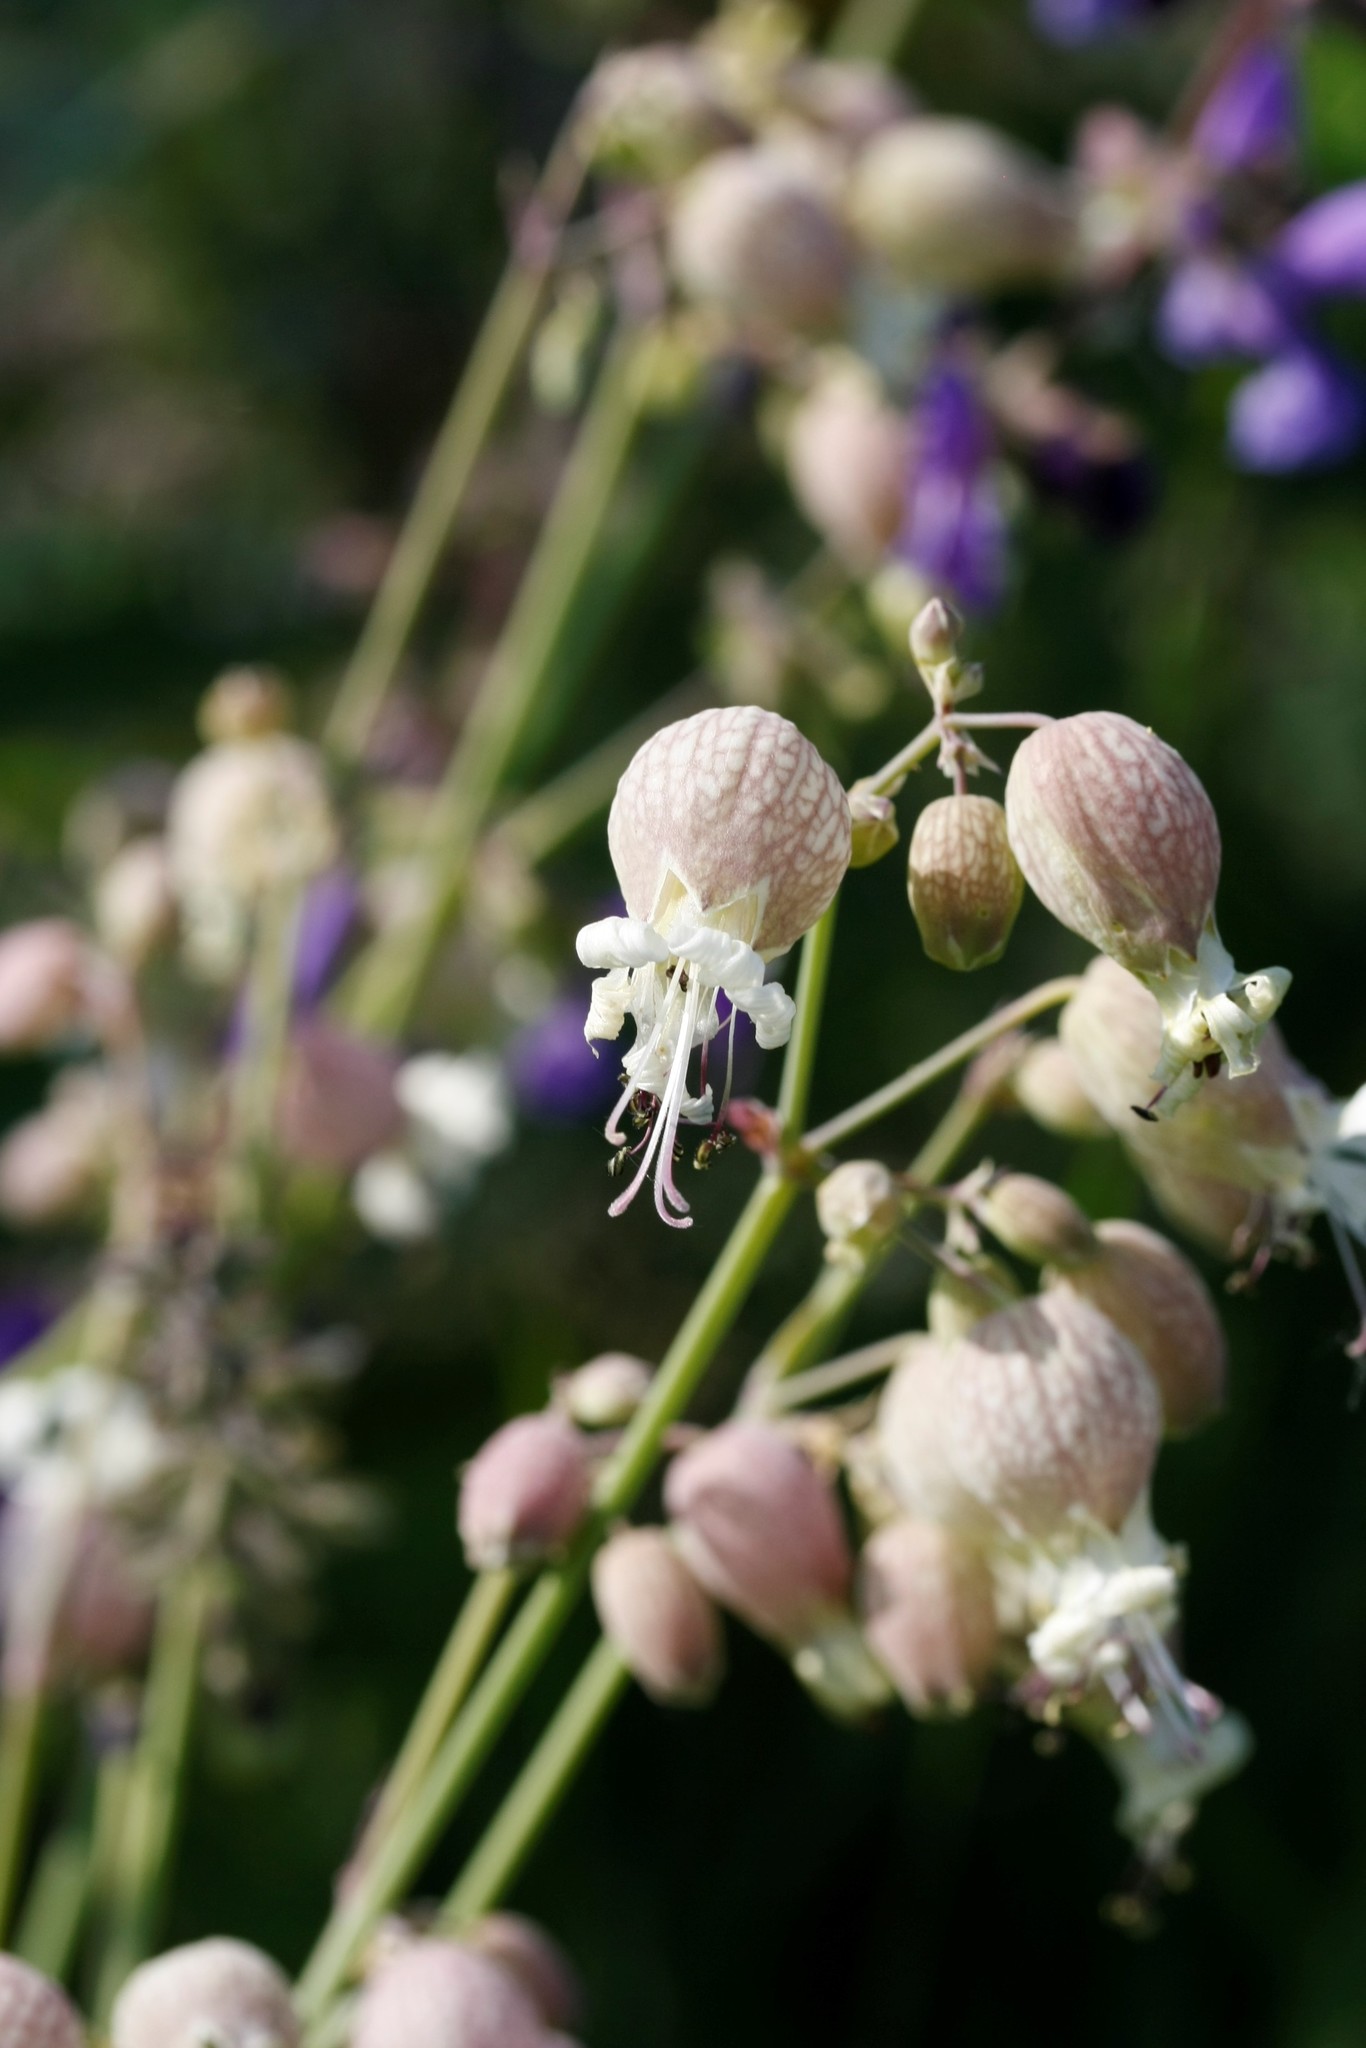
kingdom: Plantae
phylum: Tracheophyta
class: Magnoliopsida
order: Caryophyllales
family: Caryophyllaceae
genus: Silene
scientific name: Silene vulgaris
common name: Bladder campion
